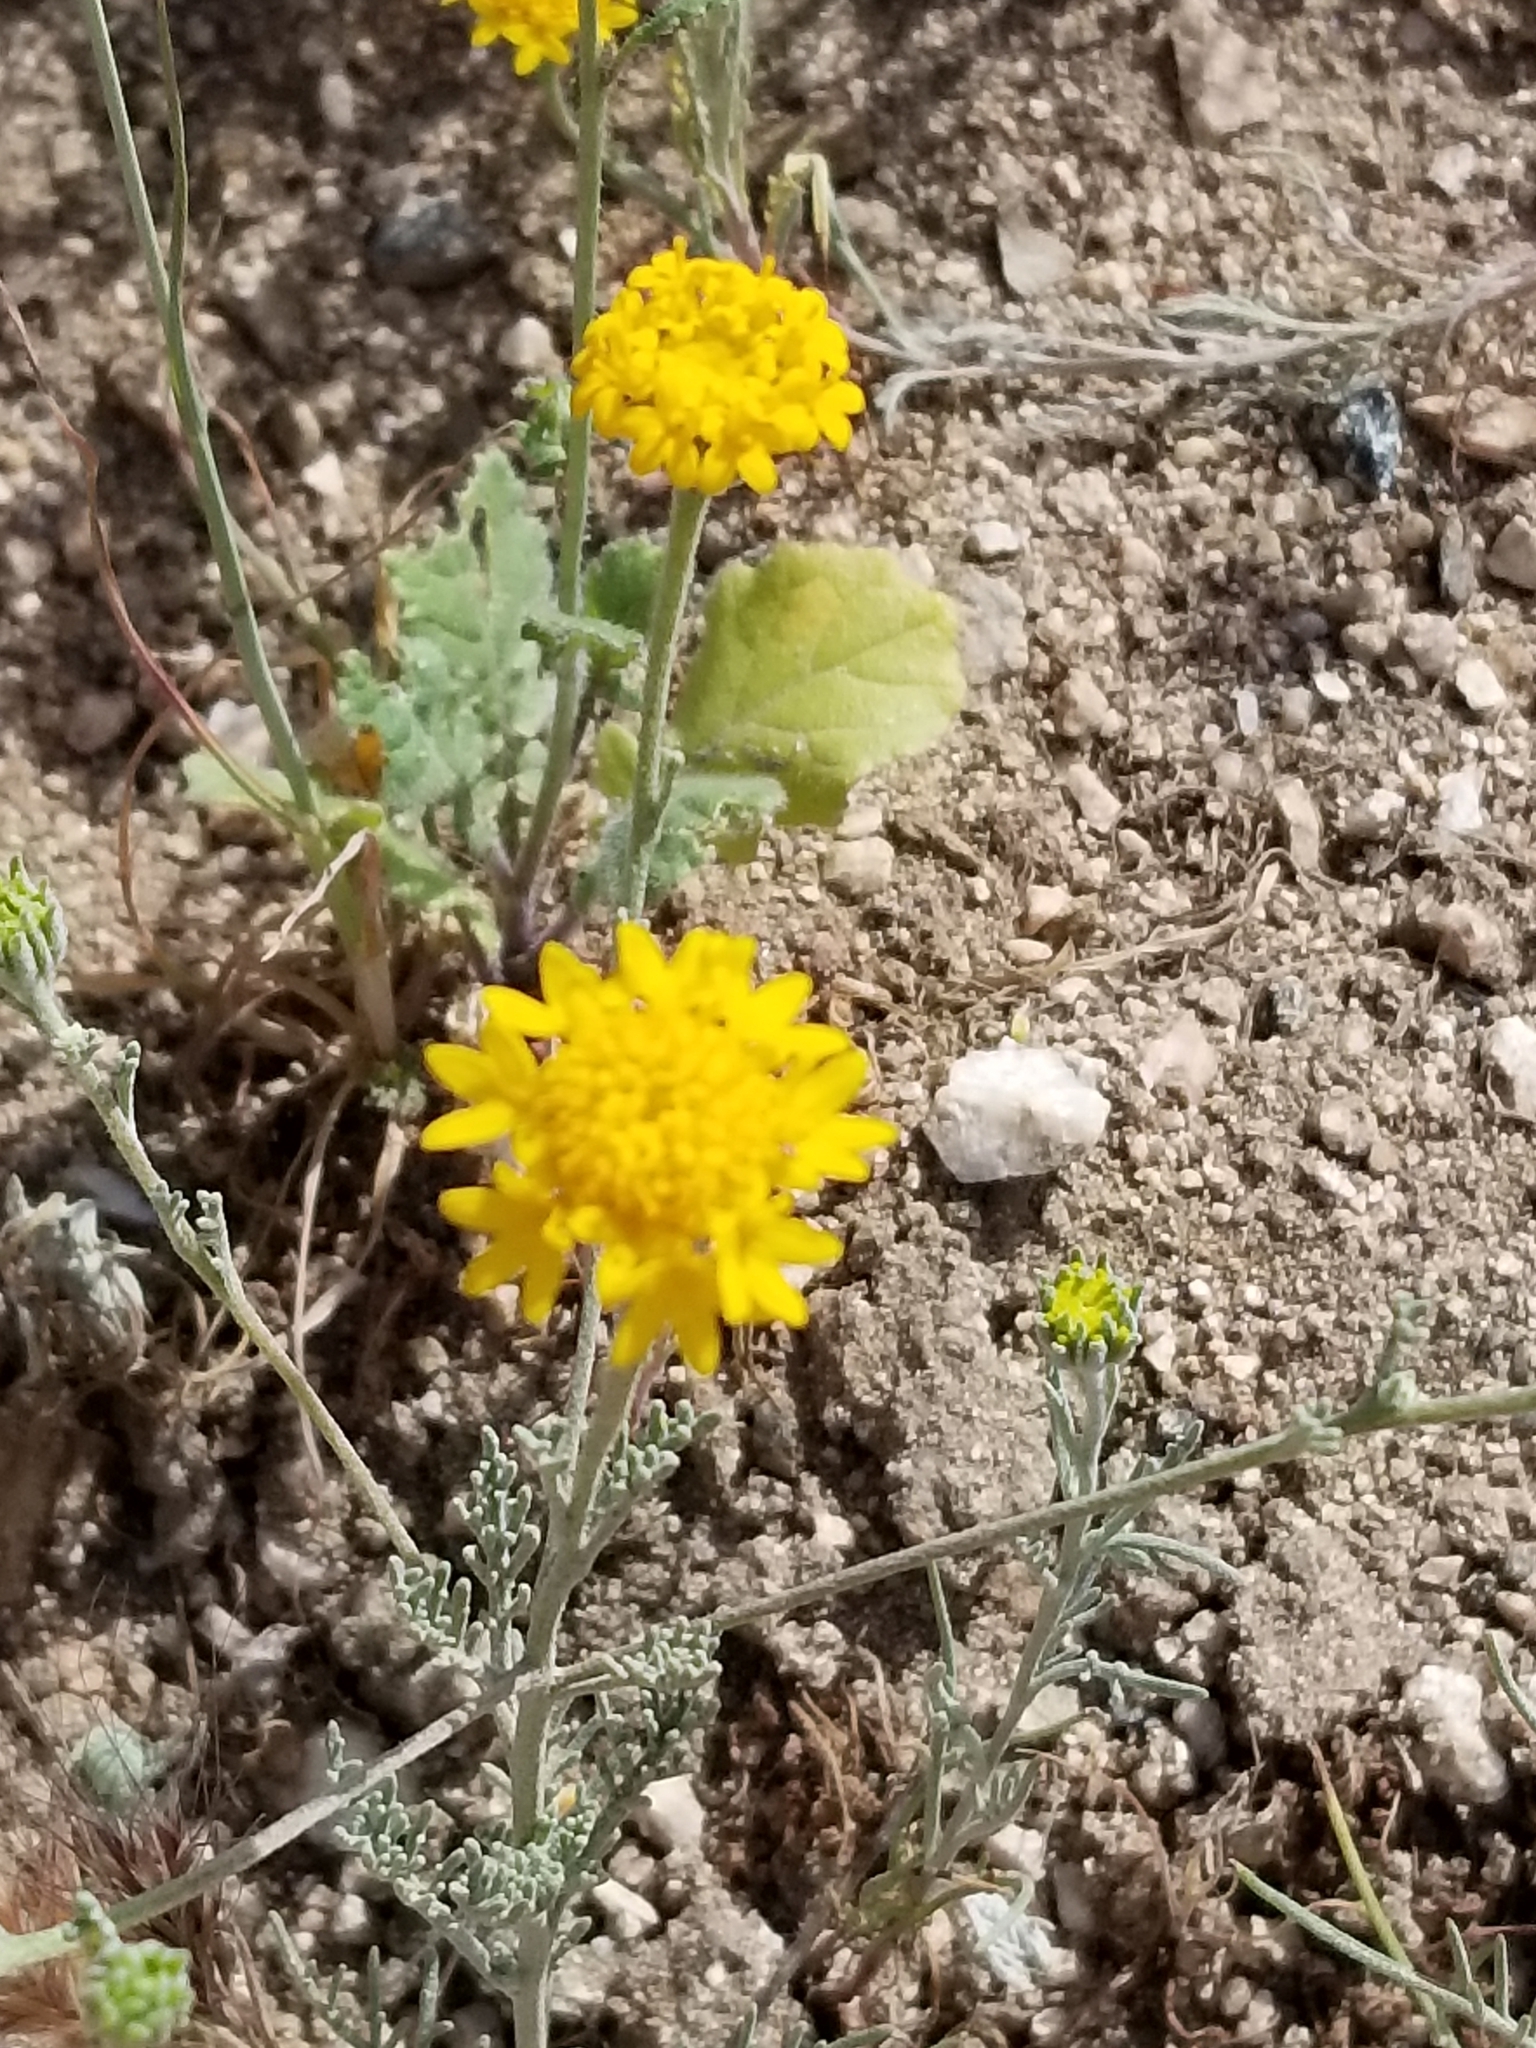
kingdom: Plantae
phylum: Tracheophyta
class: Magnoliopsida
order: Asterales
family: Asteraceae
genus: Chaenactis
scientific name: Chaenactis glabriuscula
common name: Yellow pincushion
